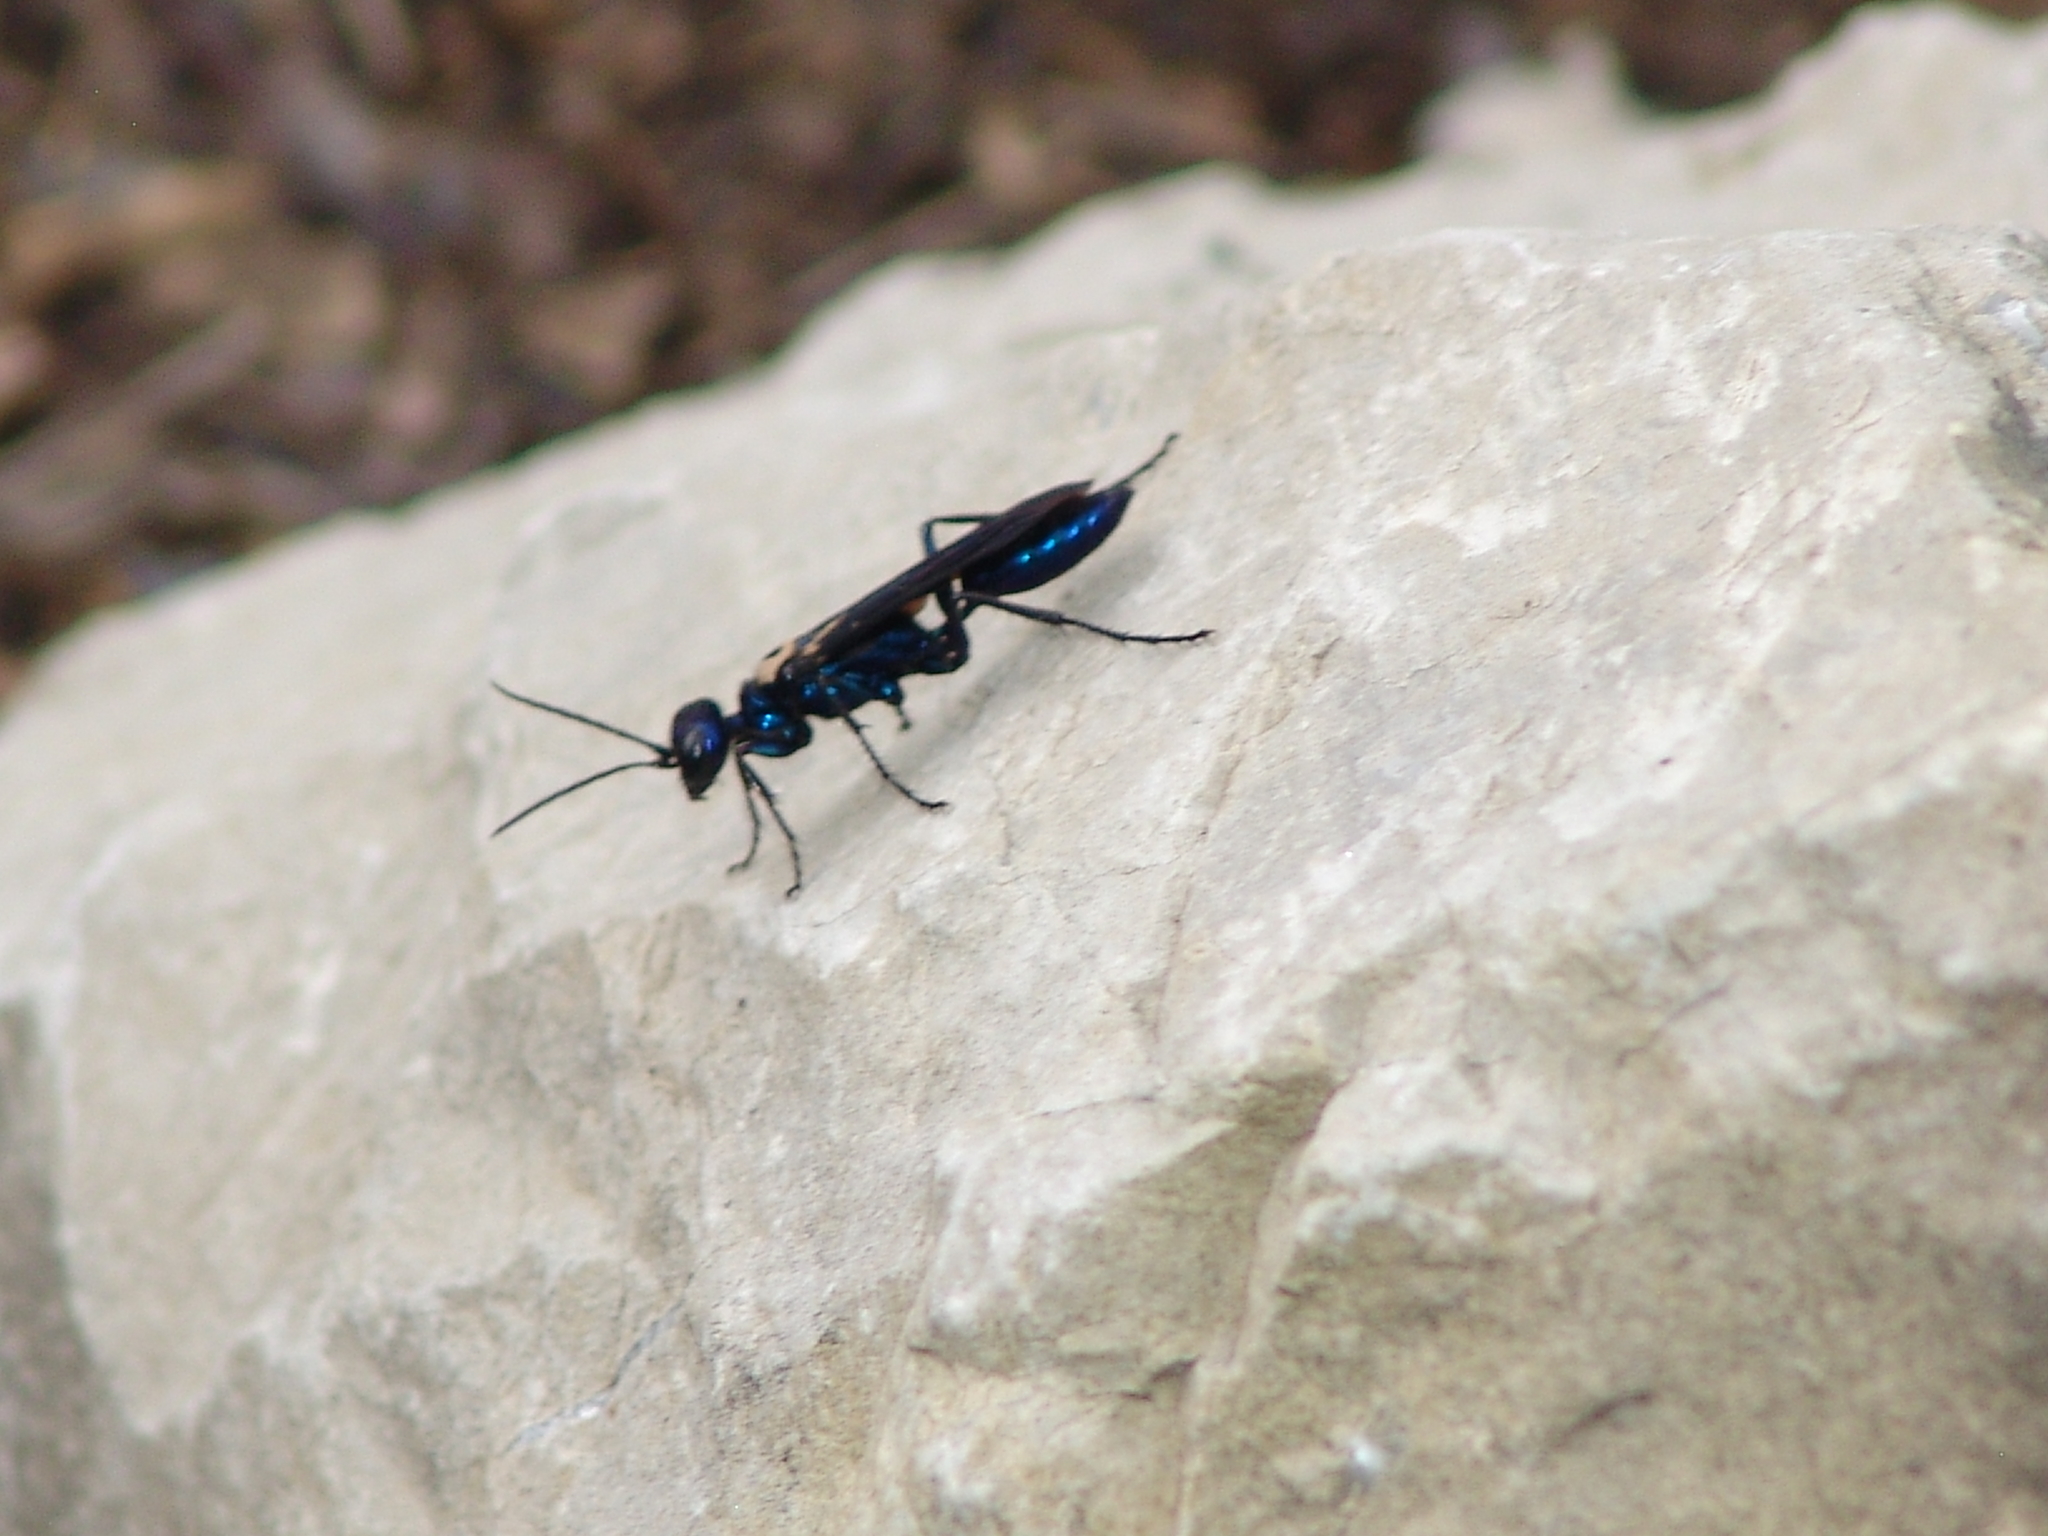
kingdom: Animalia
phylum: Arthropoda
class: Insecta
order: Hymenoptera
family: Sphecidae
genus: Chlorion
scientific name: Chlorion aerarium
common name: Steel-blue cricket hunter
